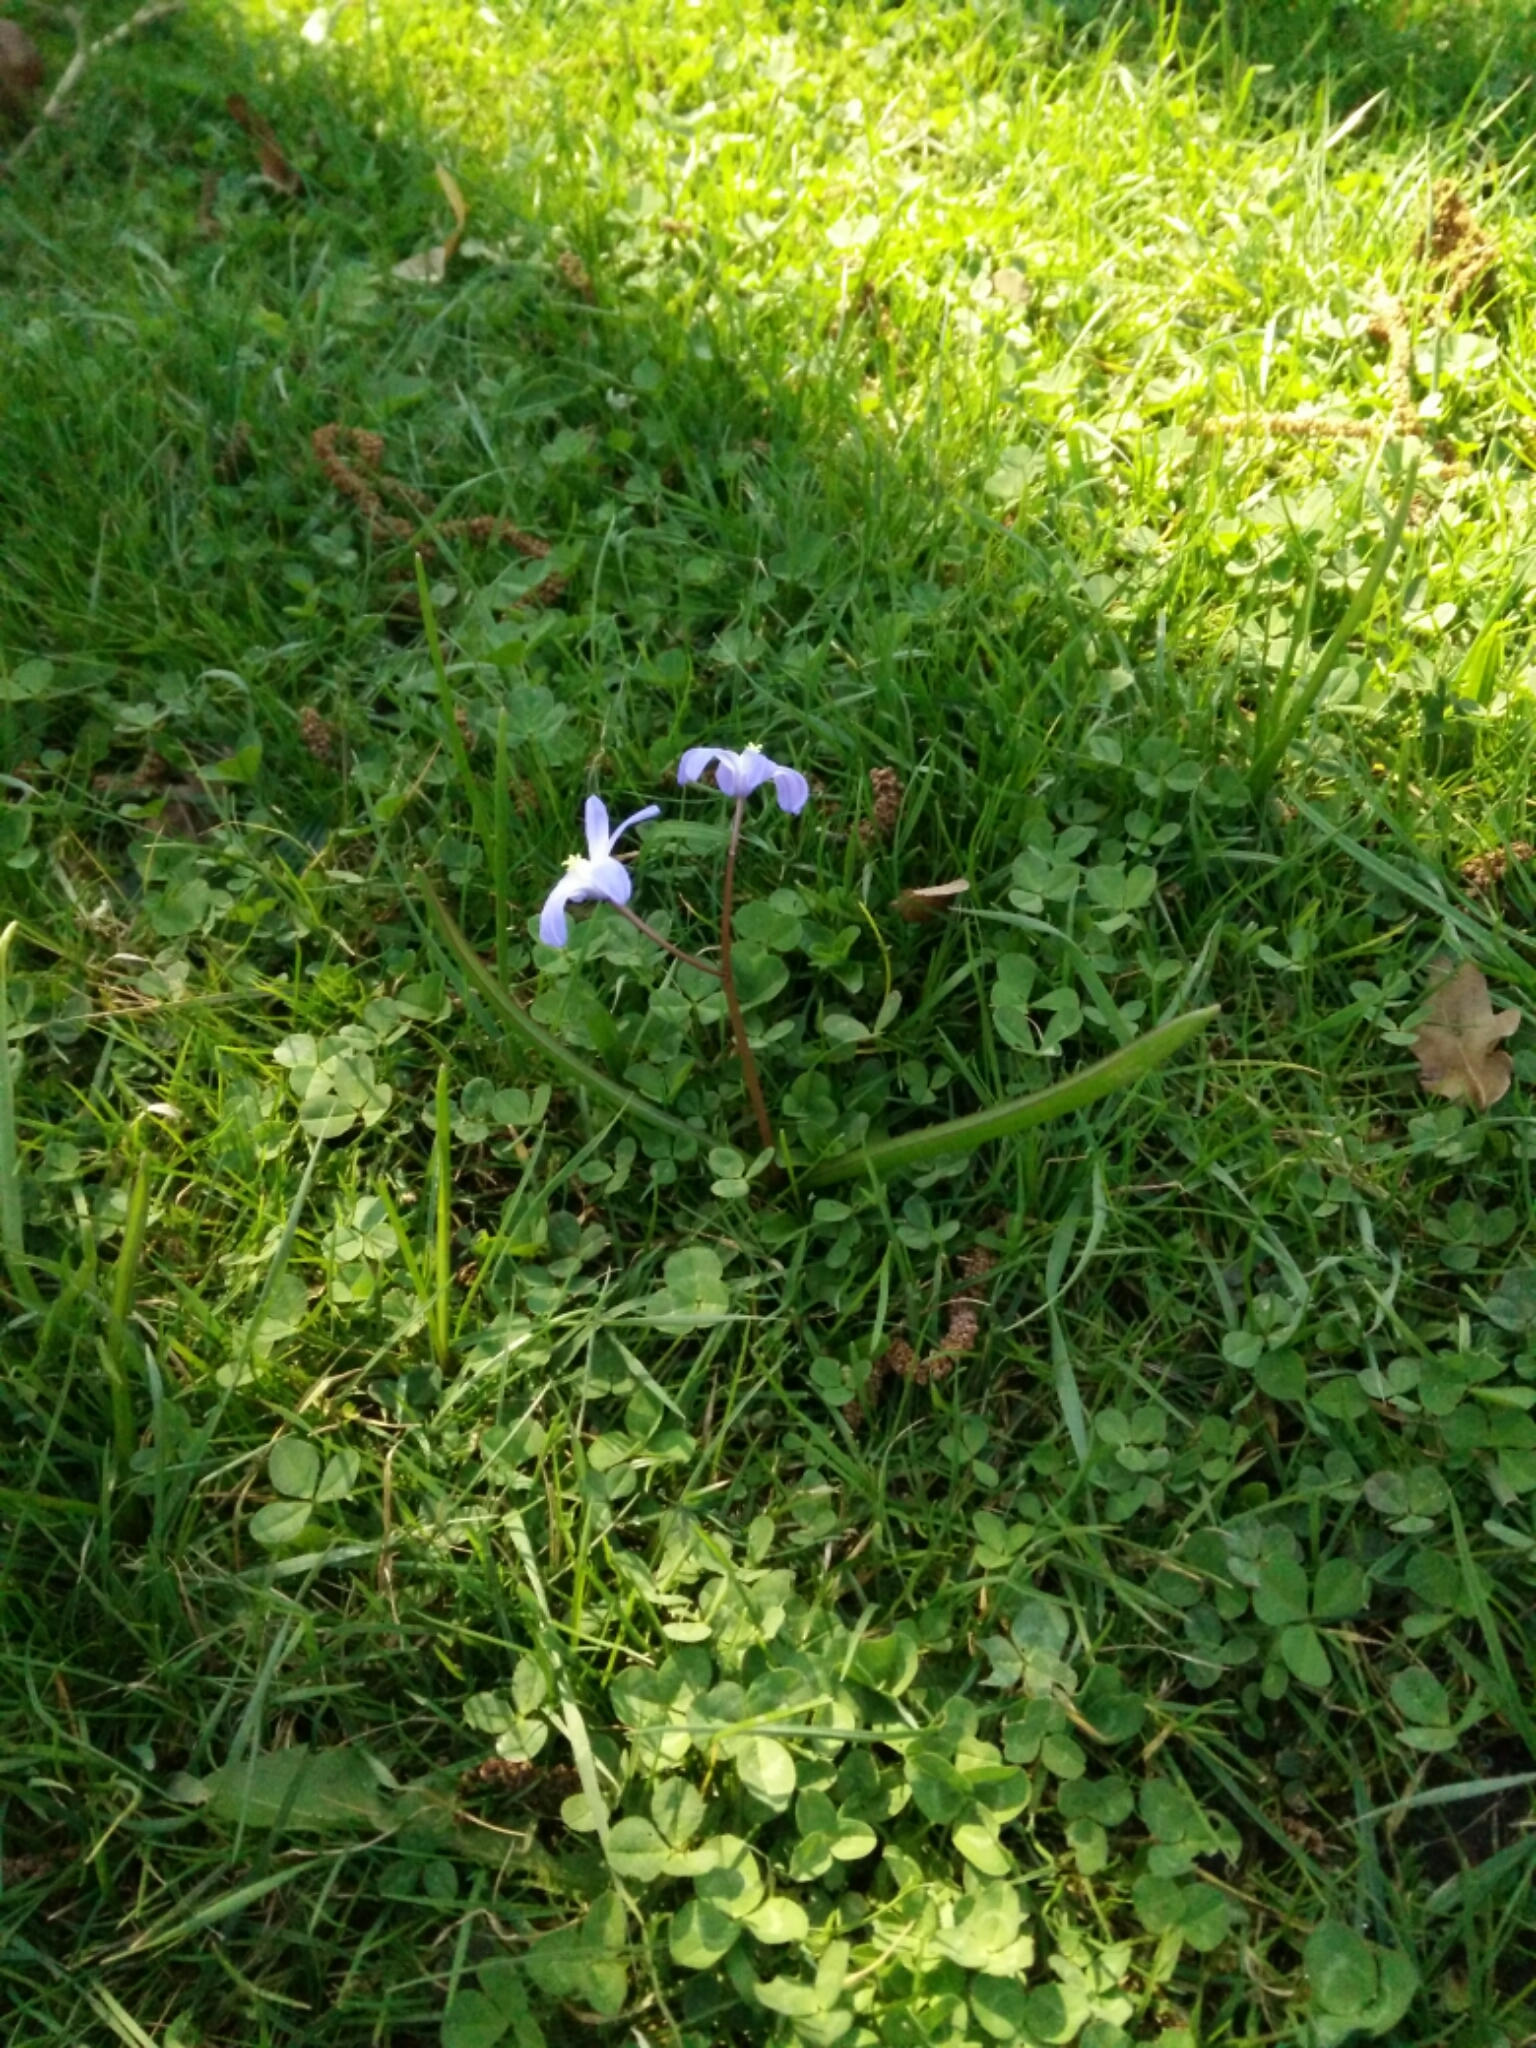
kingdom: Plantae
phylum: Tracheophyta
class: Liliopsida
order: Asparagales
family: Asparagaceae
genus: Scilla
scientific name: Scilla forbesii
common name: Glory-of-the-snow
